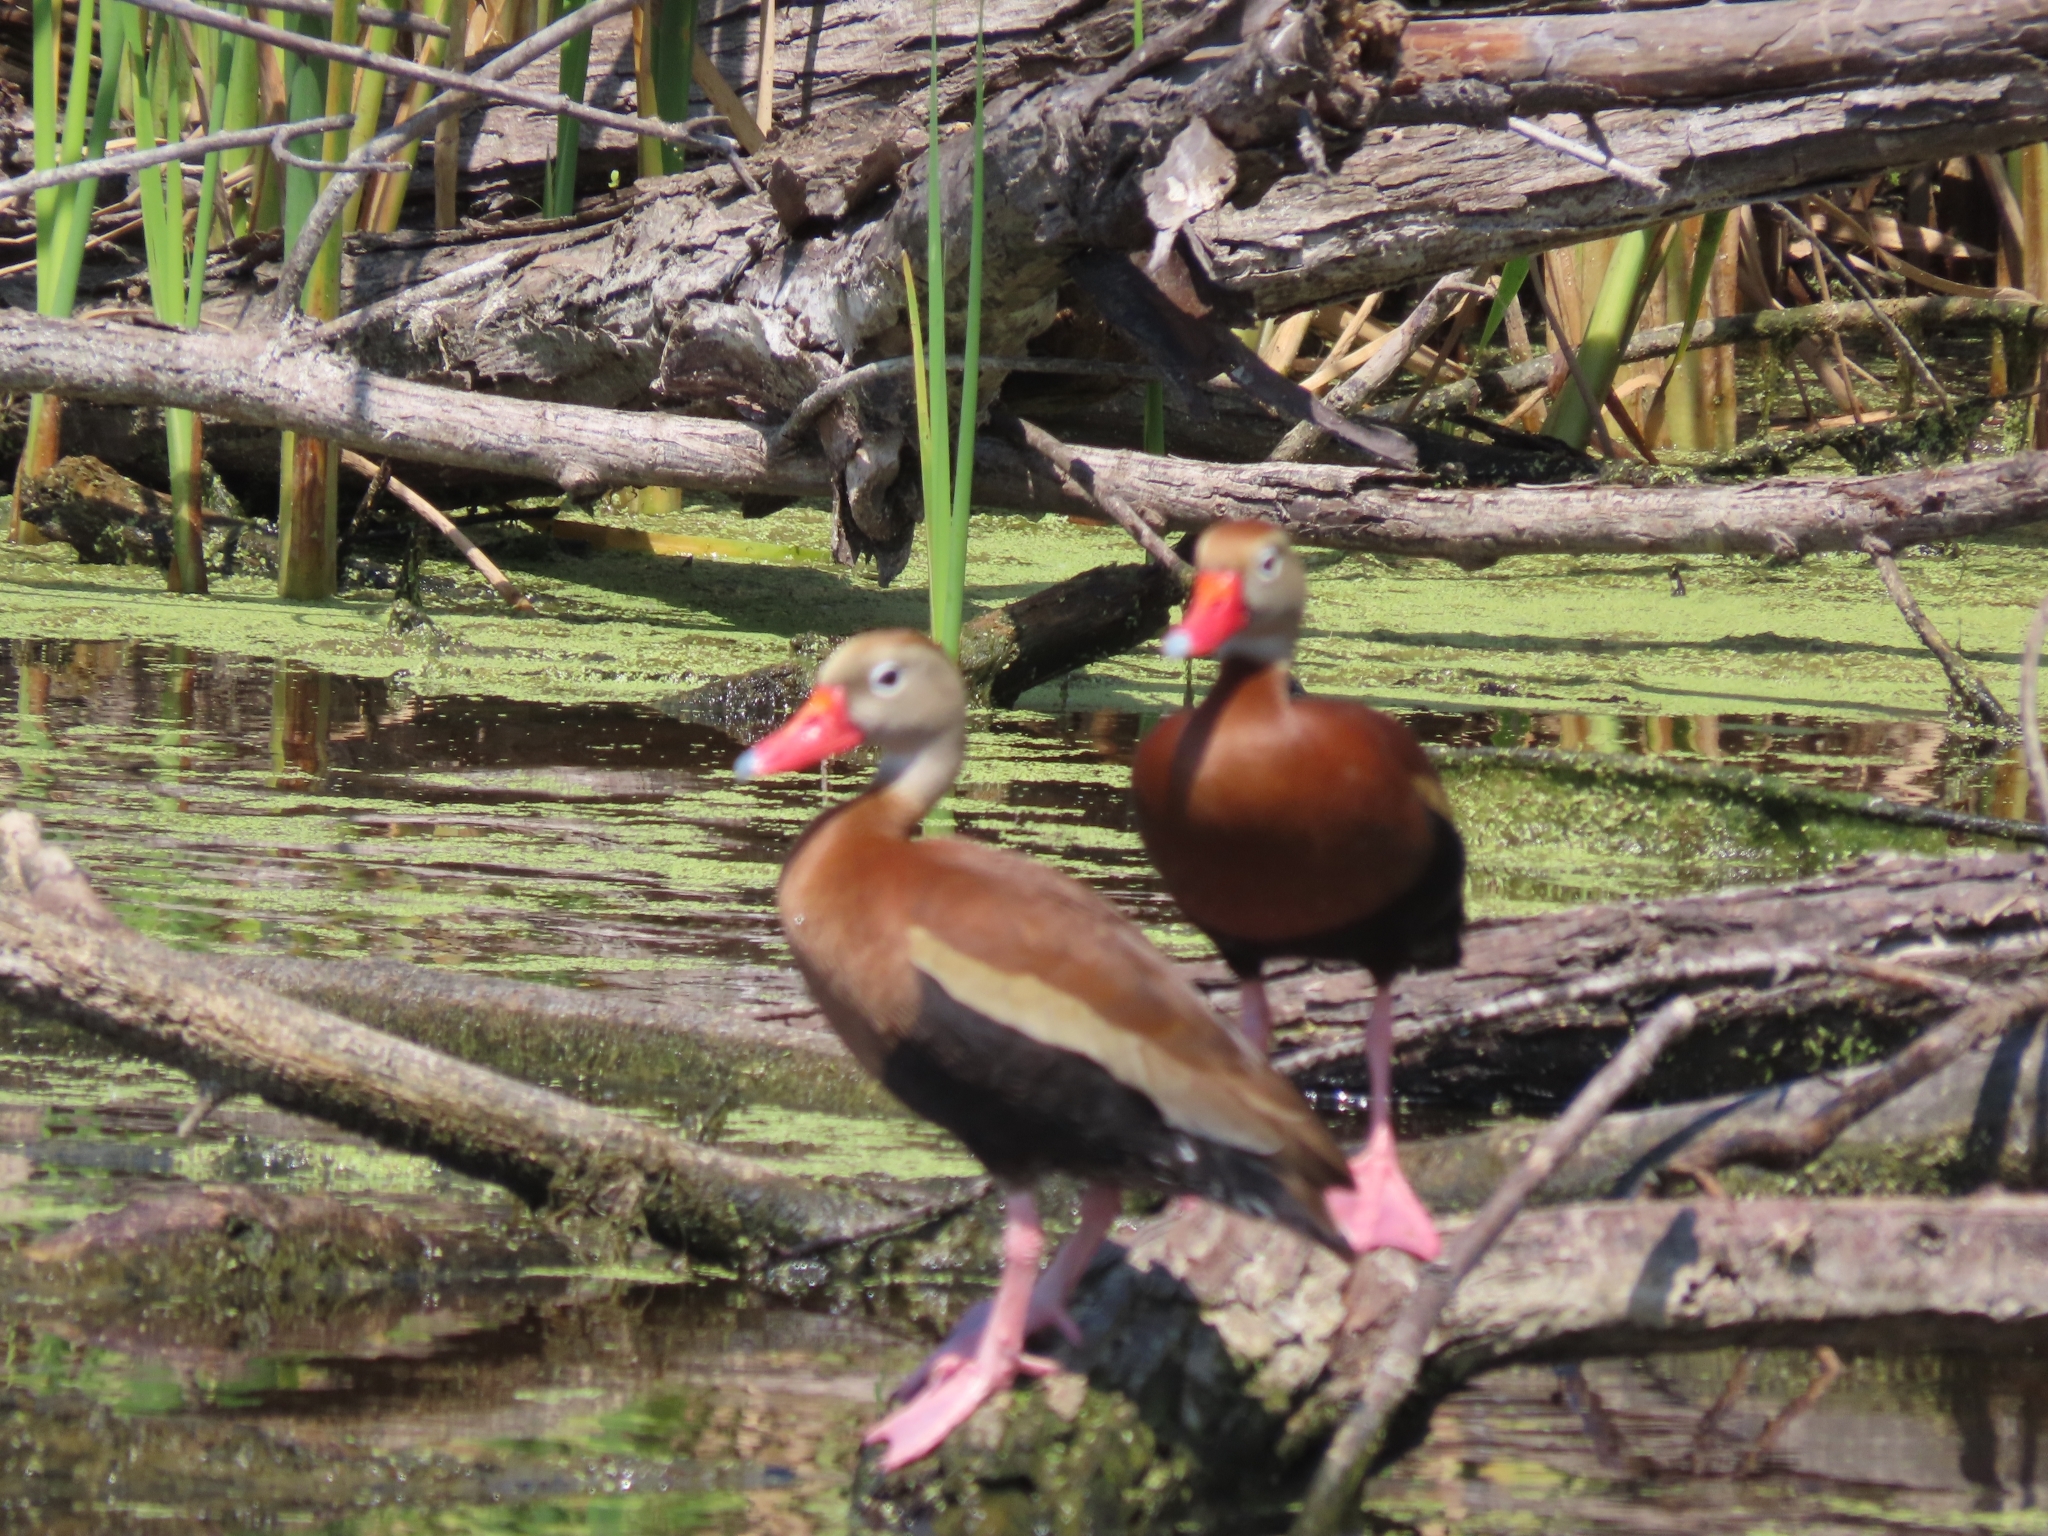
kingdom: Animalia
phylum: Chordata
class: Aves
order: Anseriformes
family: Anatidae
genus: Dendrocygna
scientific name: Dendrocygna autumnalis
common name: Black-bellied whistling duck
